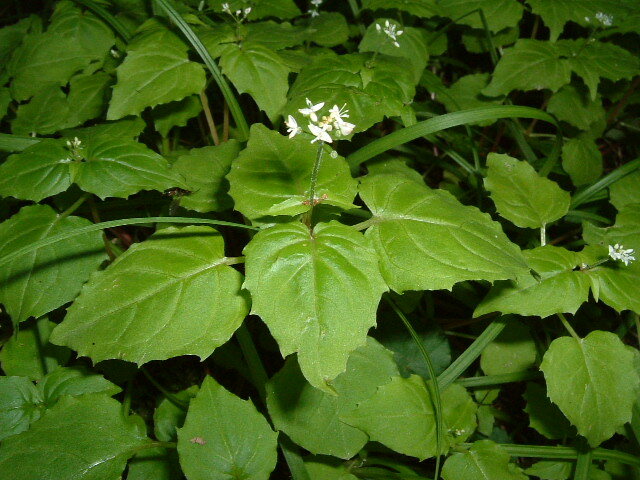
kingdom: Plantae
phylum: Tracheophyta
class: Magnoliopsida
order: Myrtales
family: Onagraceae
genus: Circaea
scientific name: Circaea alpina
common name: Alpine enchanter's-nightshade
